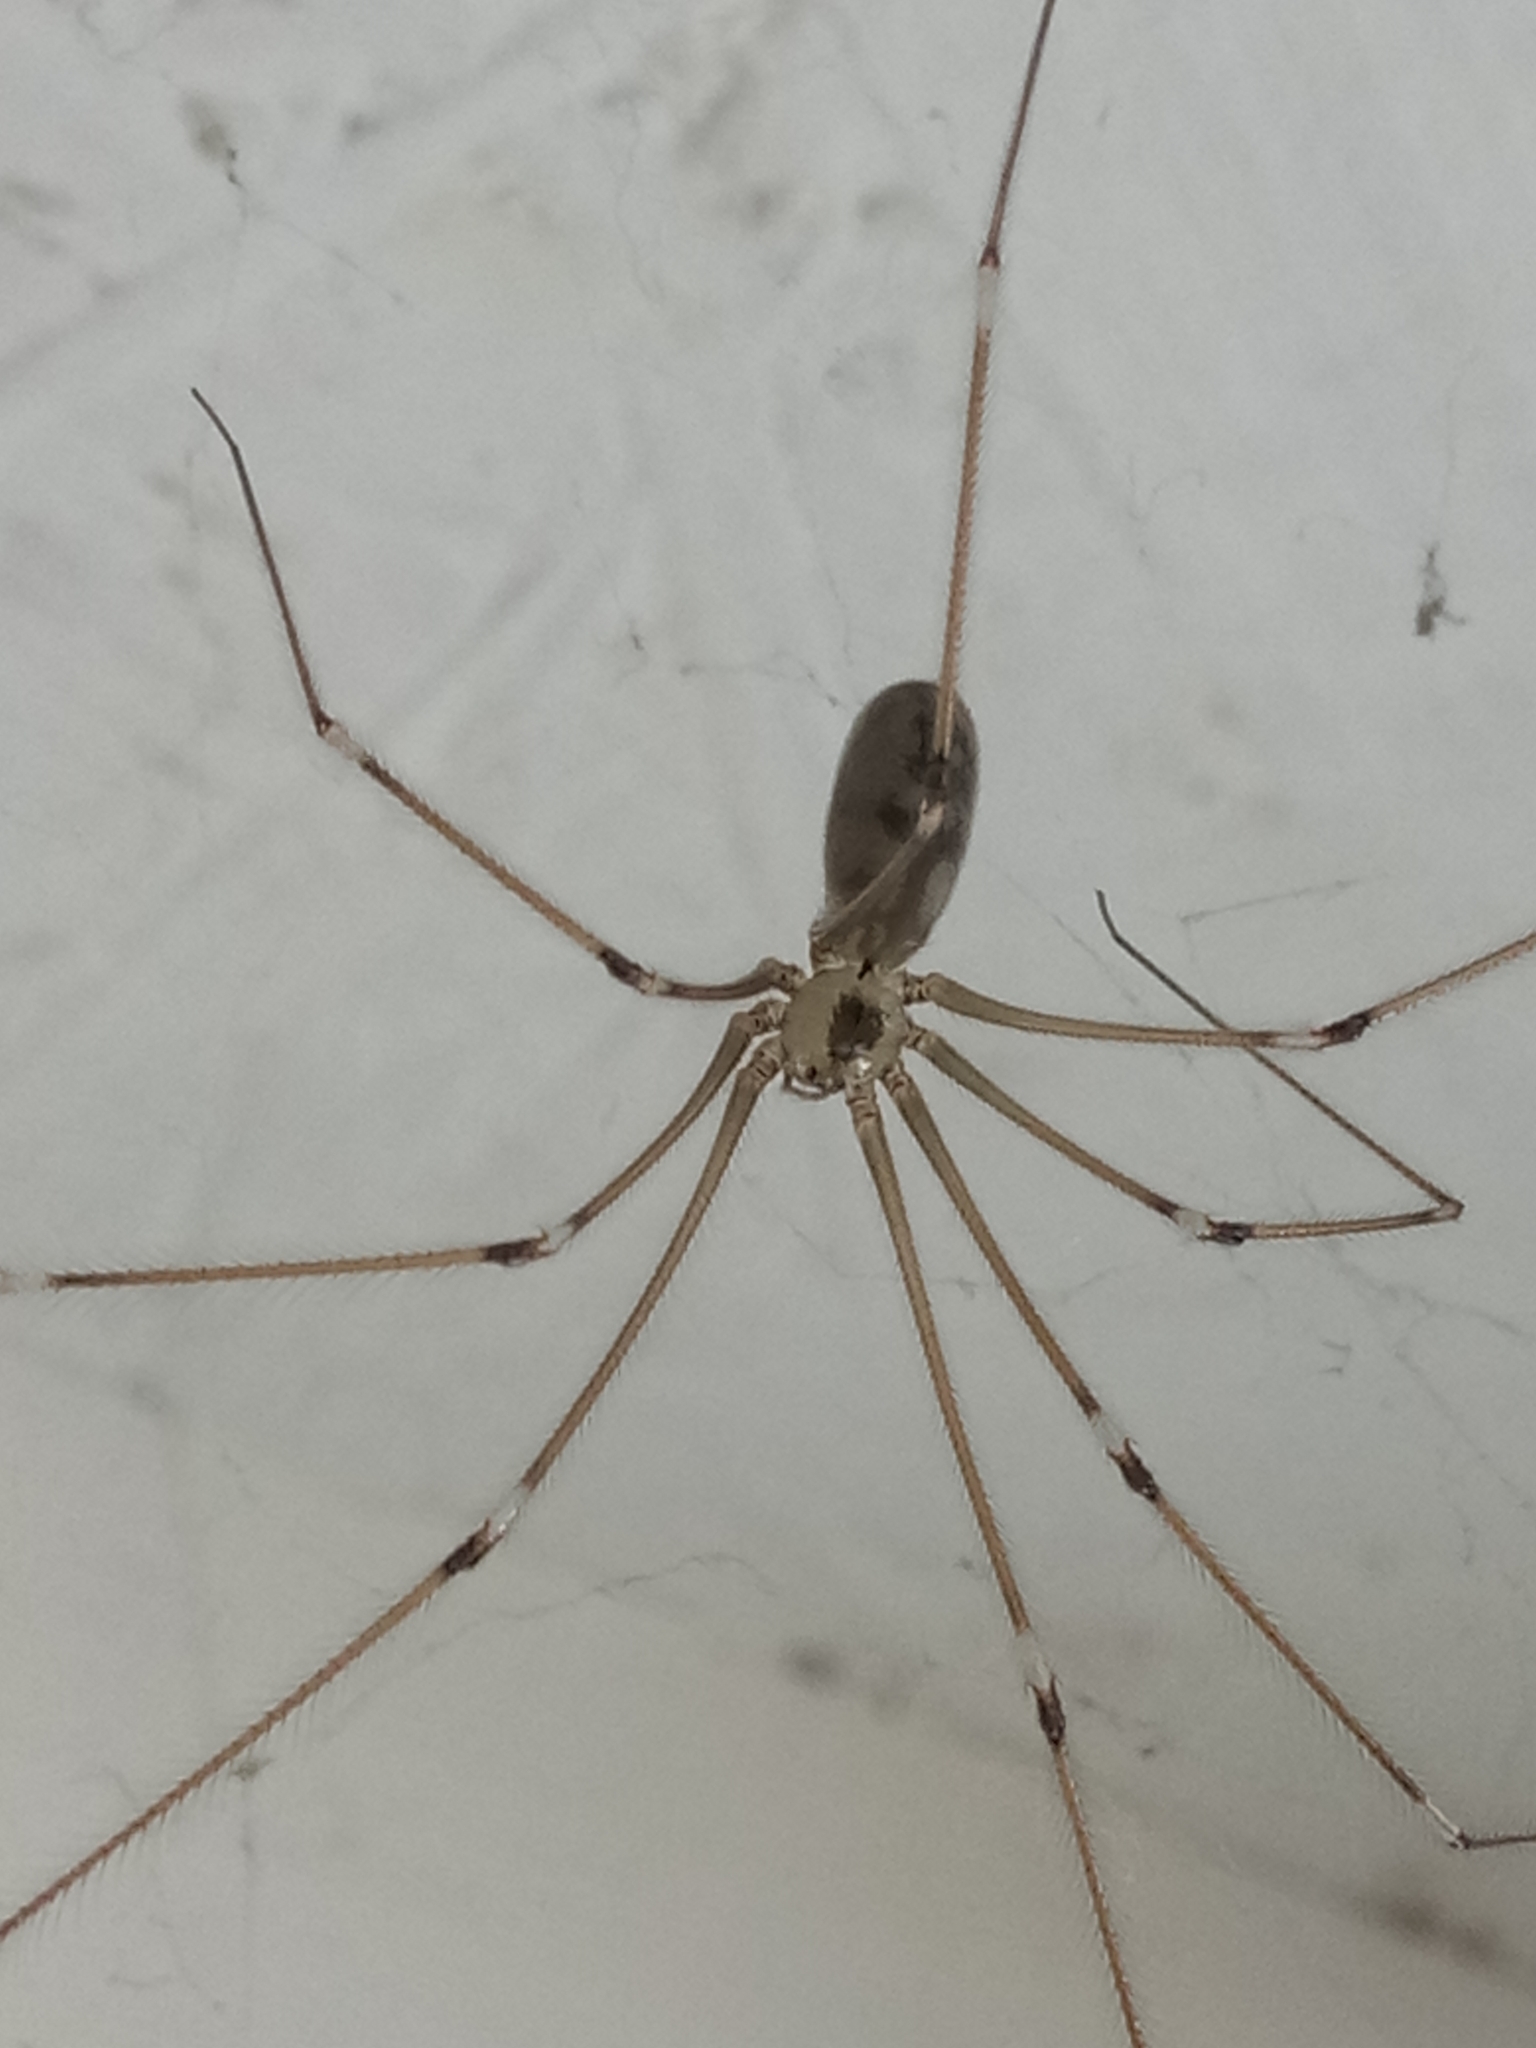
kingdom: Animalia
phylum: Arthropoda
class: Arachnida
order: Araneae
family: Pholcidae
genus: Pholcus
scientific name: Pholcus phalangioides
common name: Longbodied cellar spider
